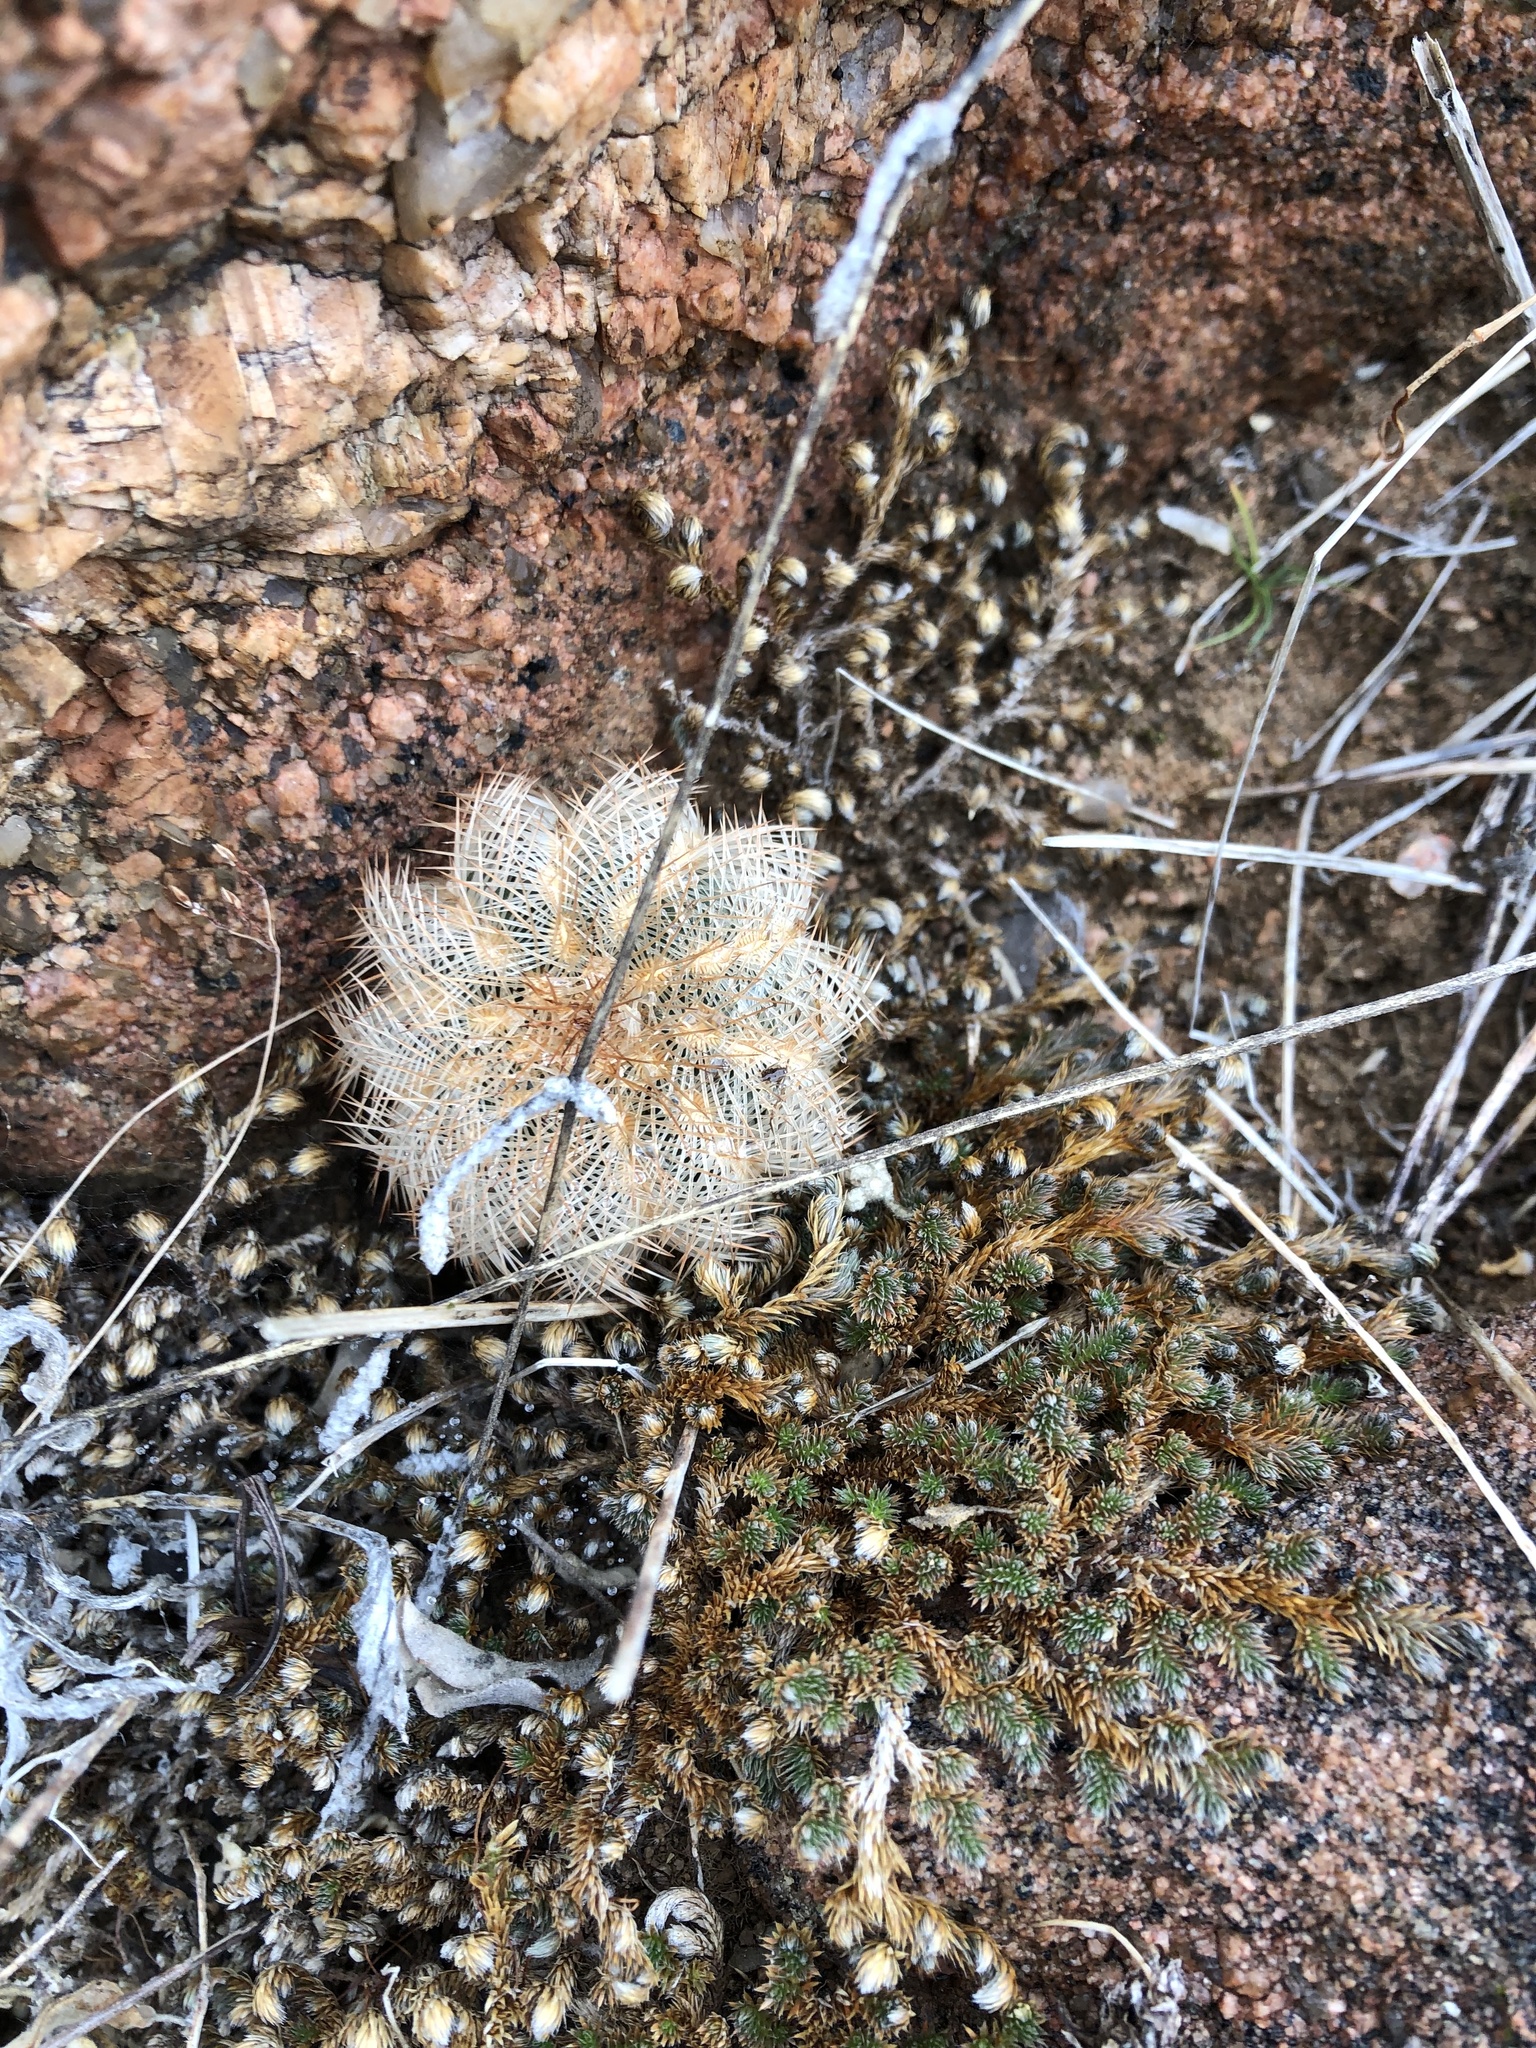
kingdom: Plantae
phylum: Tracheophyta
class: Magnoliopsida
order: Caryophyllales
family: Cactaceae
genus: Echinocereus
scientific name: Echinocereus reichenbachii
